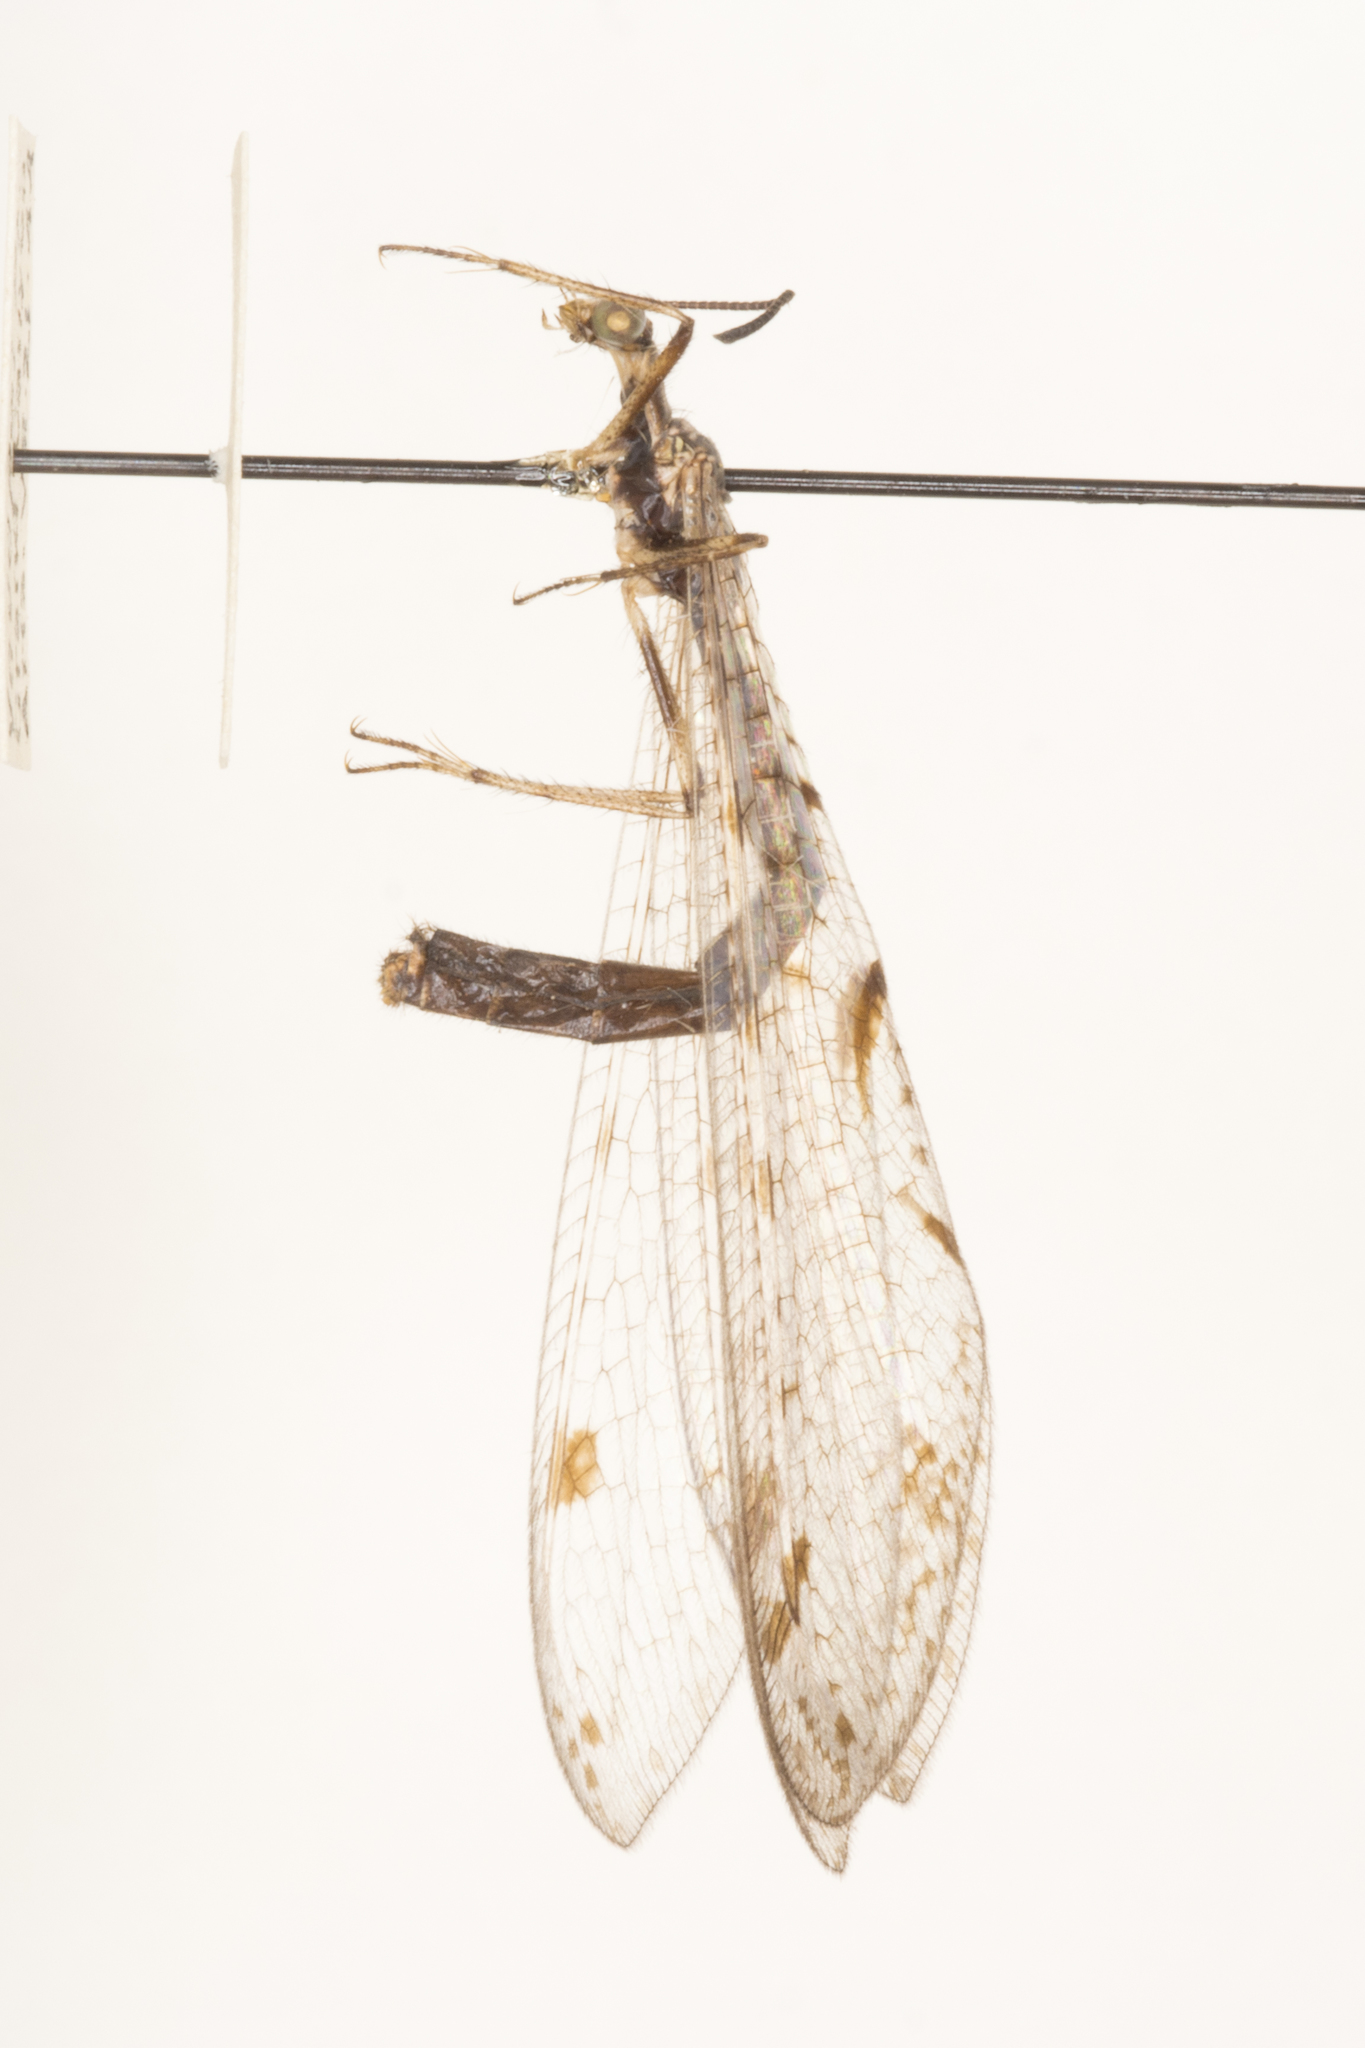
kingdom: Animalia
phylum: Arthropoda
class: Insecta
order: Neuroptera
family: Myrmeleontidae
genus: Dendroleon
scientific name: Dendroleon speciosus
